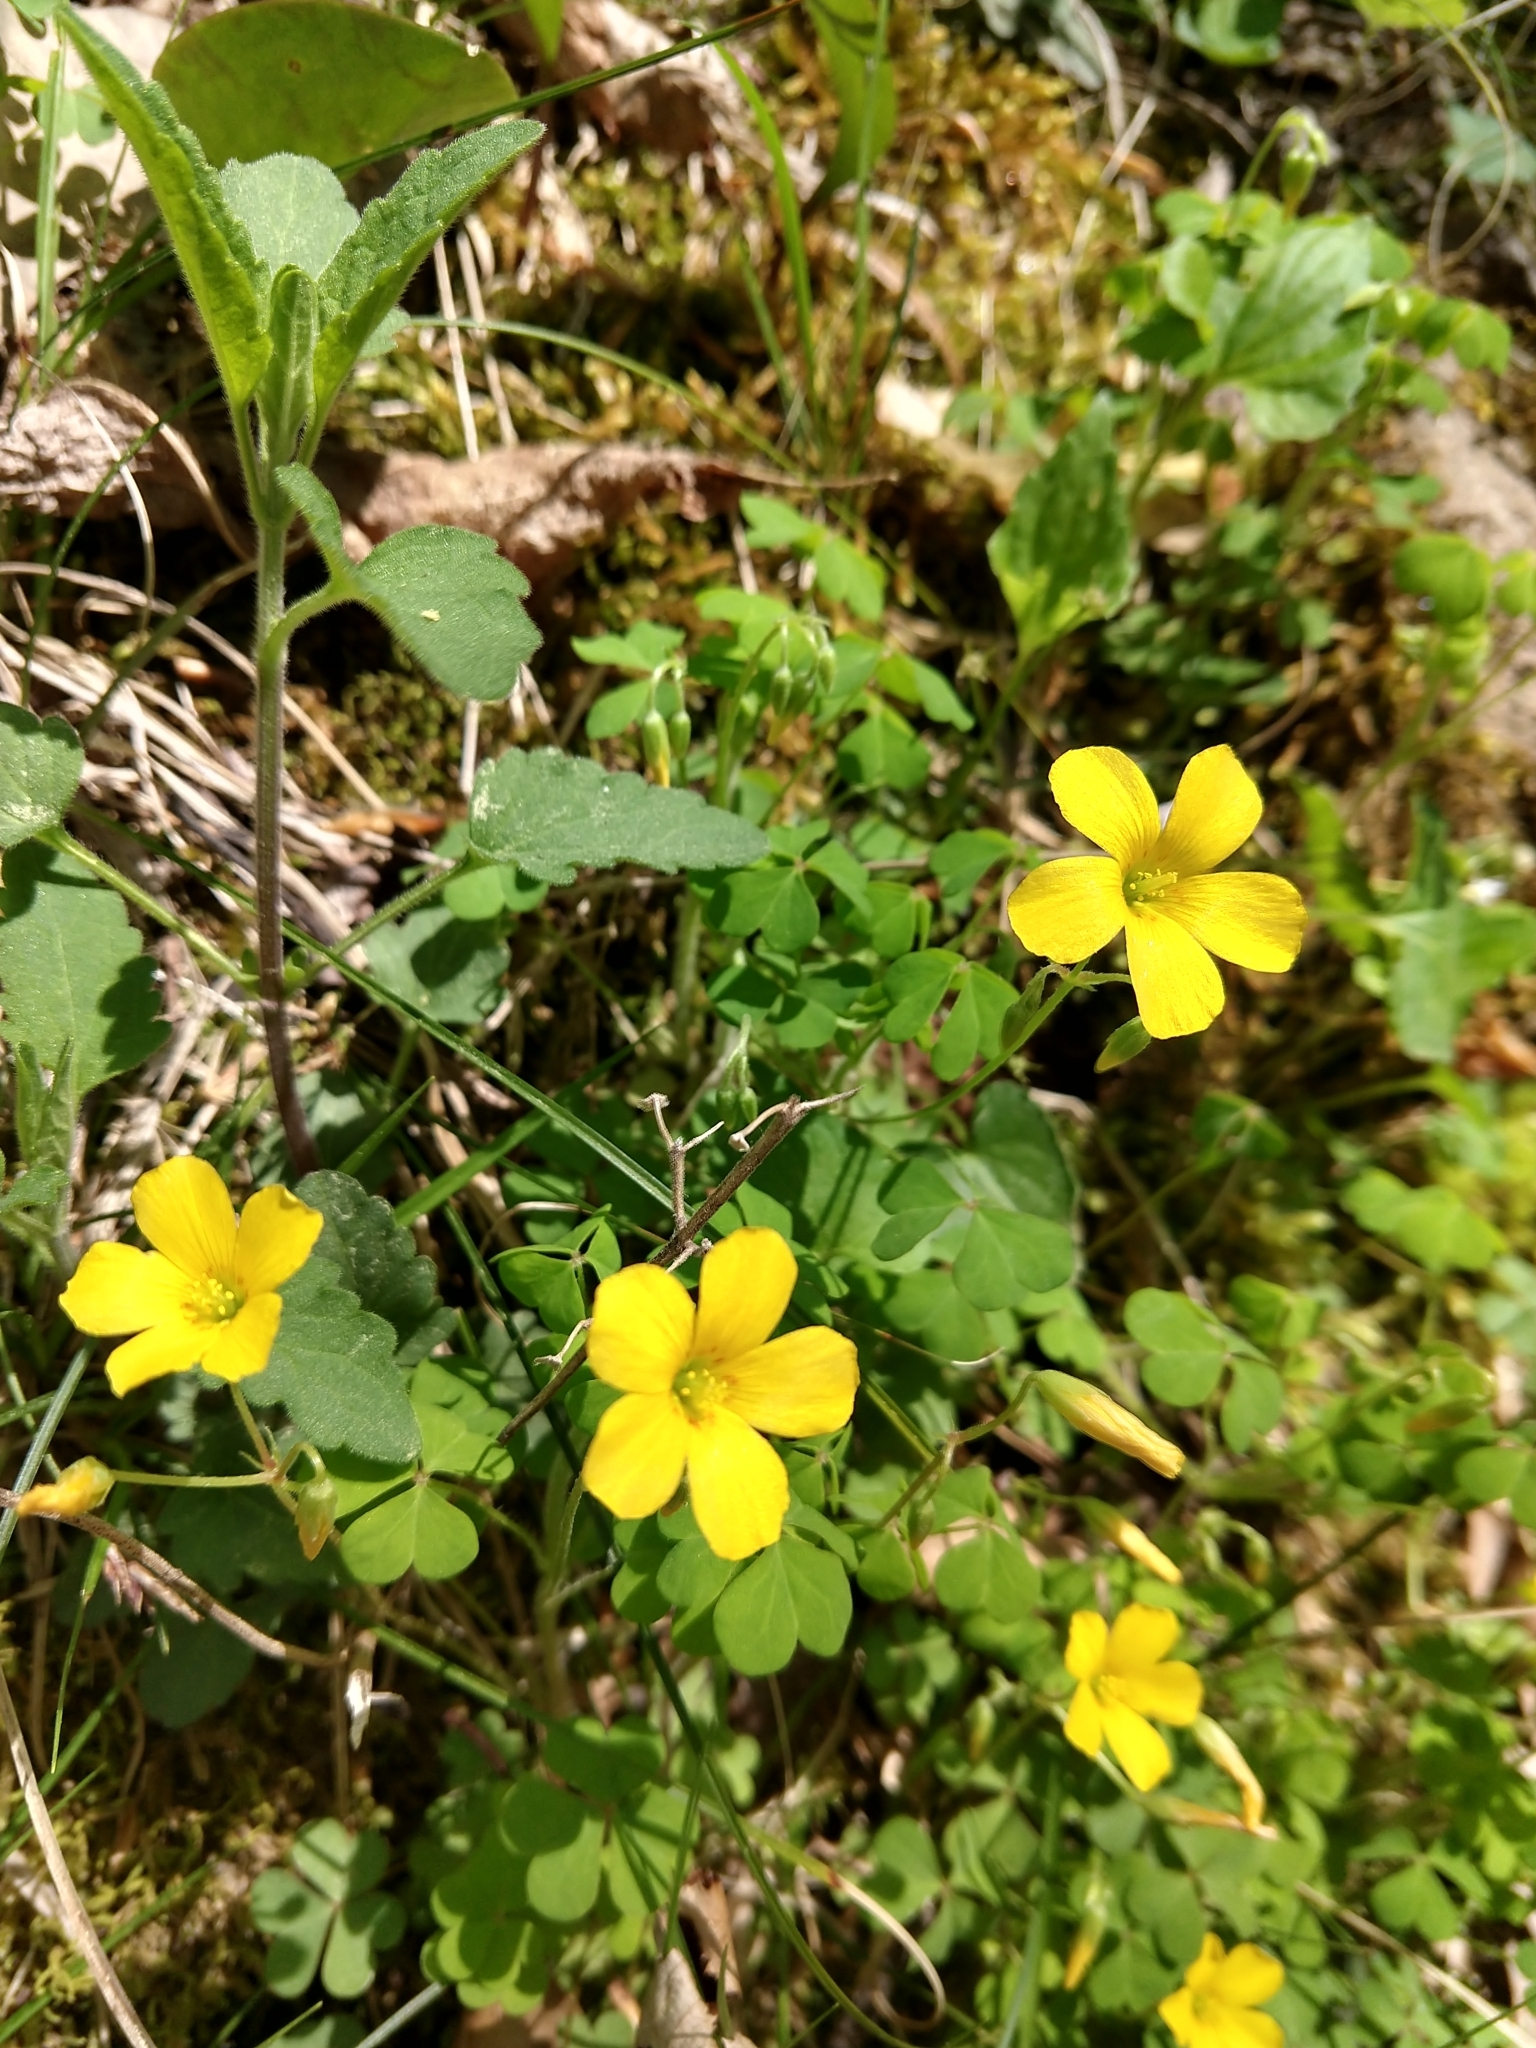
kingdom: Plantae
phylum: Tracheophyta
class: Magnoliopsida
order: Oxalidales
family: Oxalidaceae
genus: Oxalis
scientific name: Oxalis corniculata
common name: Procumbent yellow-sorrel
